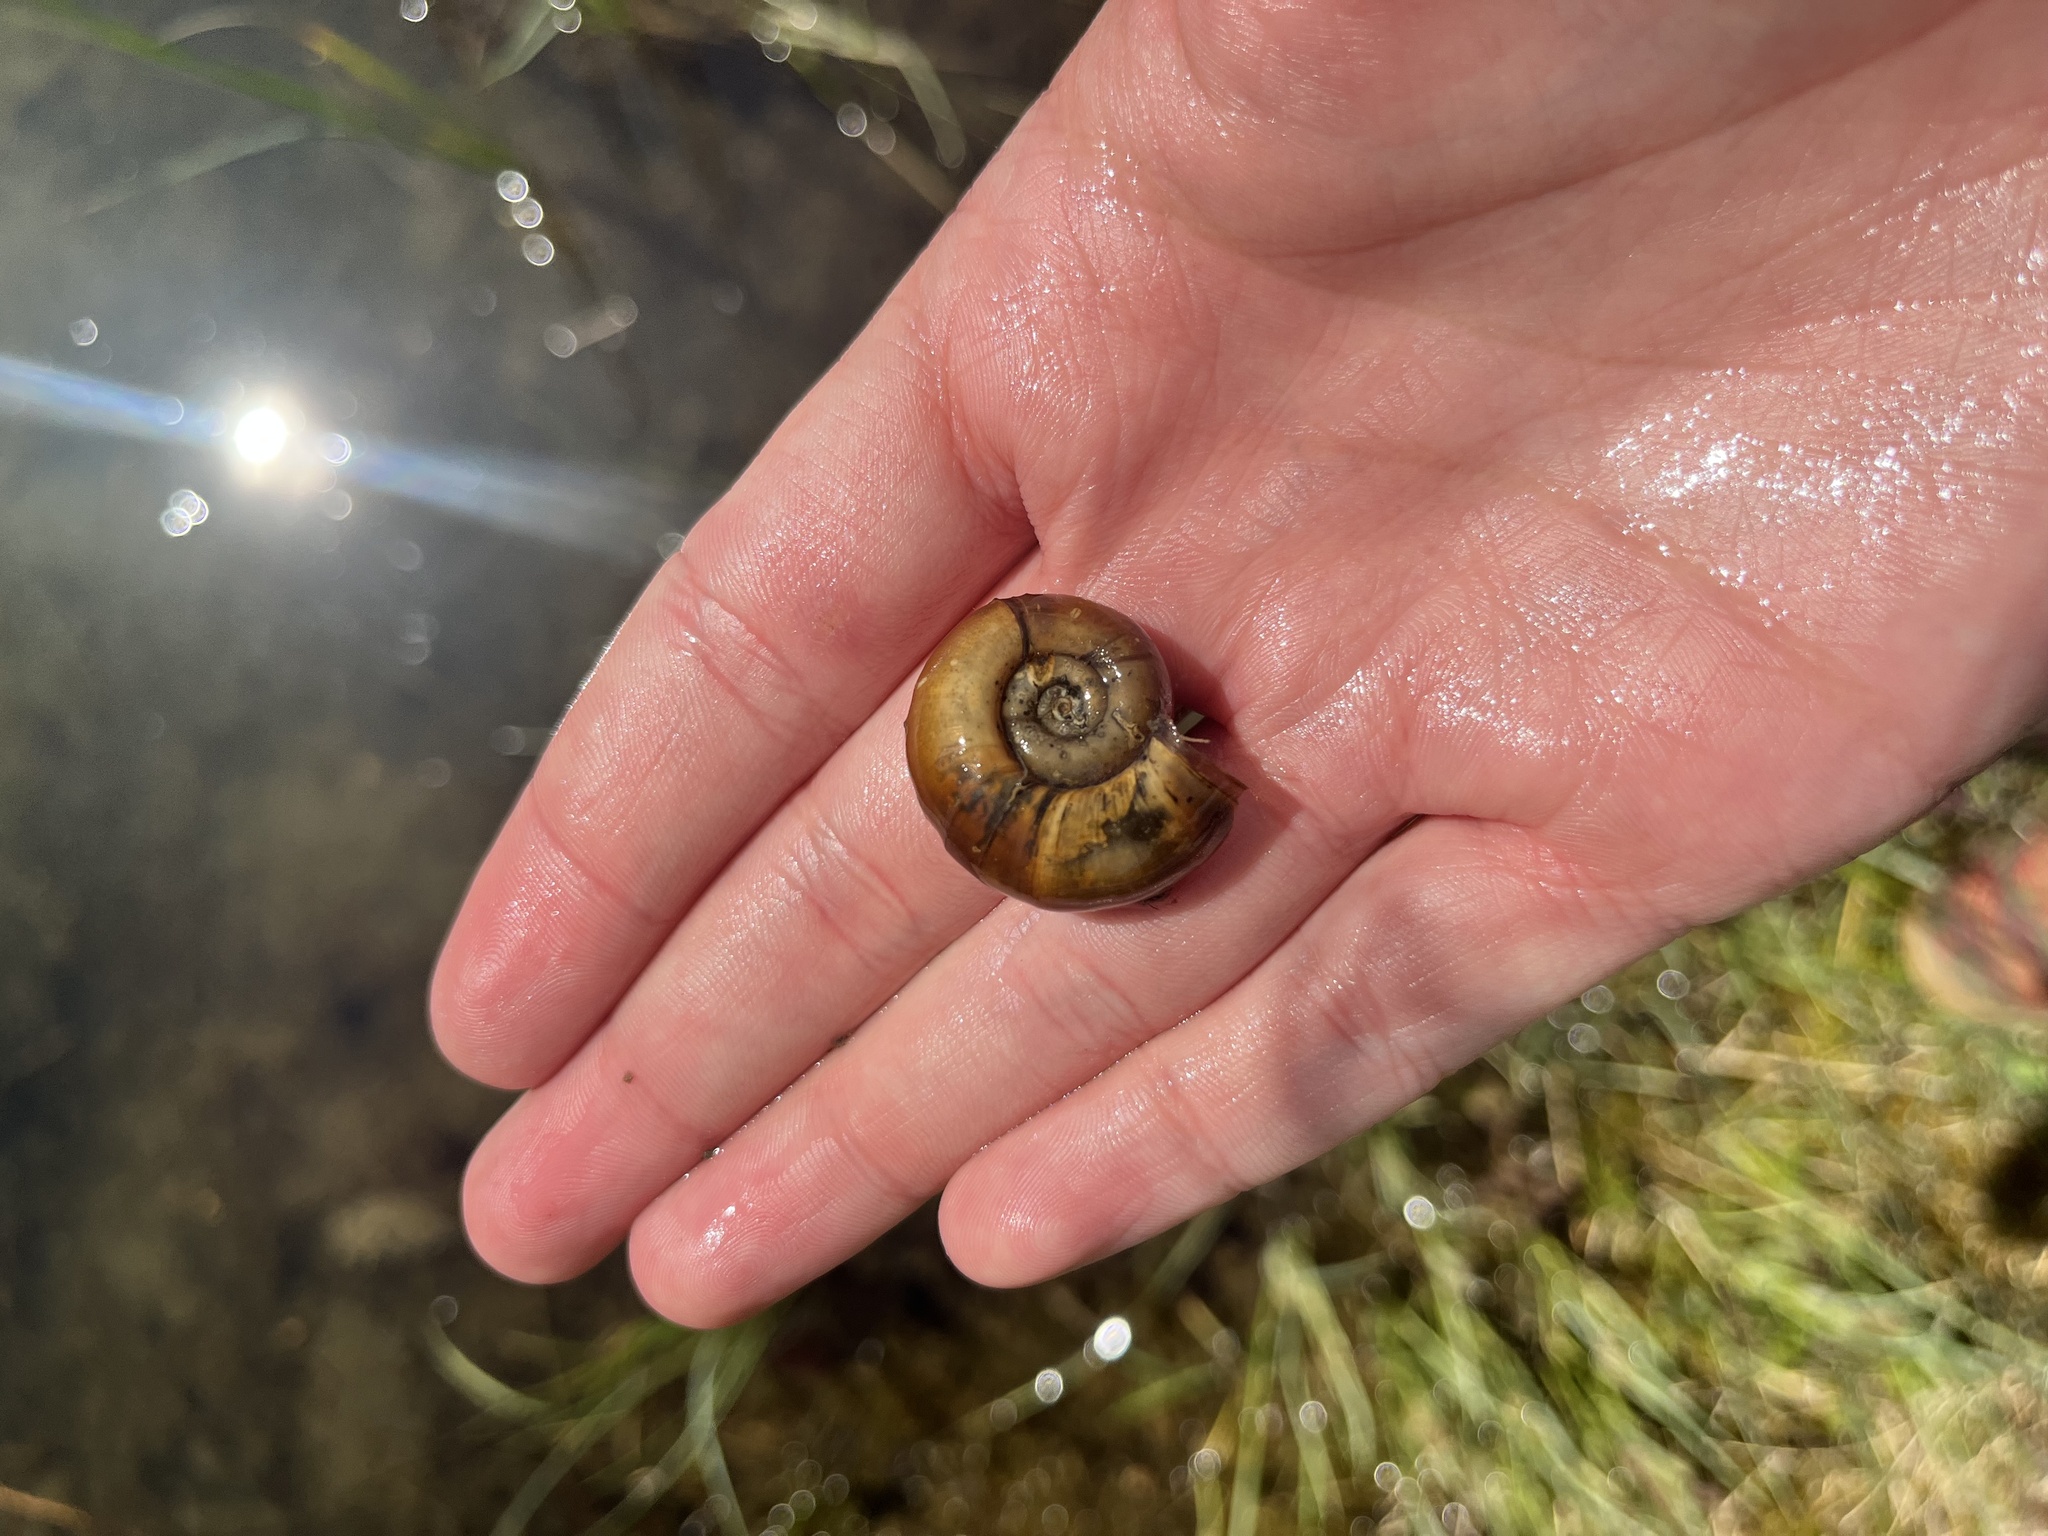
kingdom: Animalia
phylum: Mollusca
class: Gastropoda
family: Planorbidae
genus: Planorbarius
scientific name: Planorbarius corneus
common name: Great ramshorn
